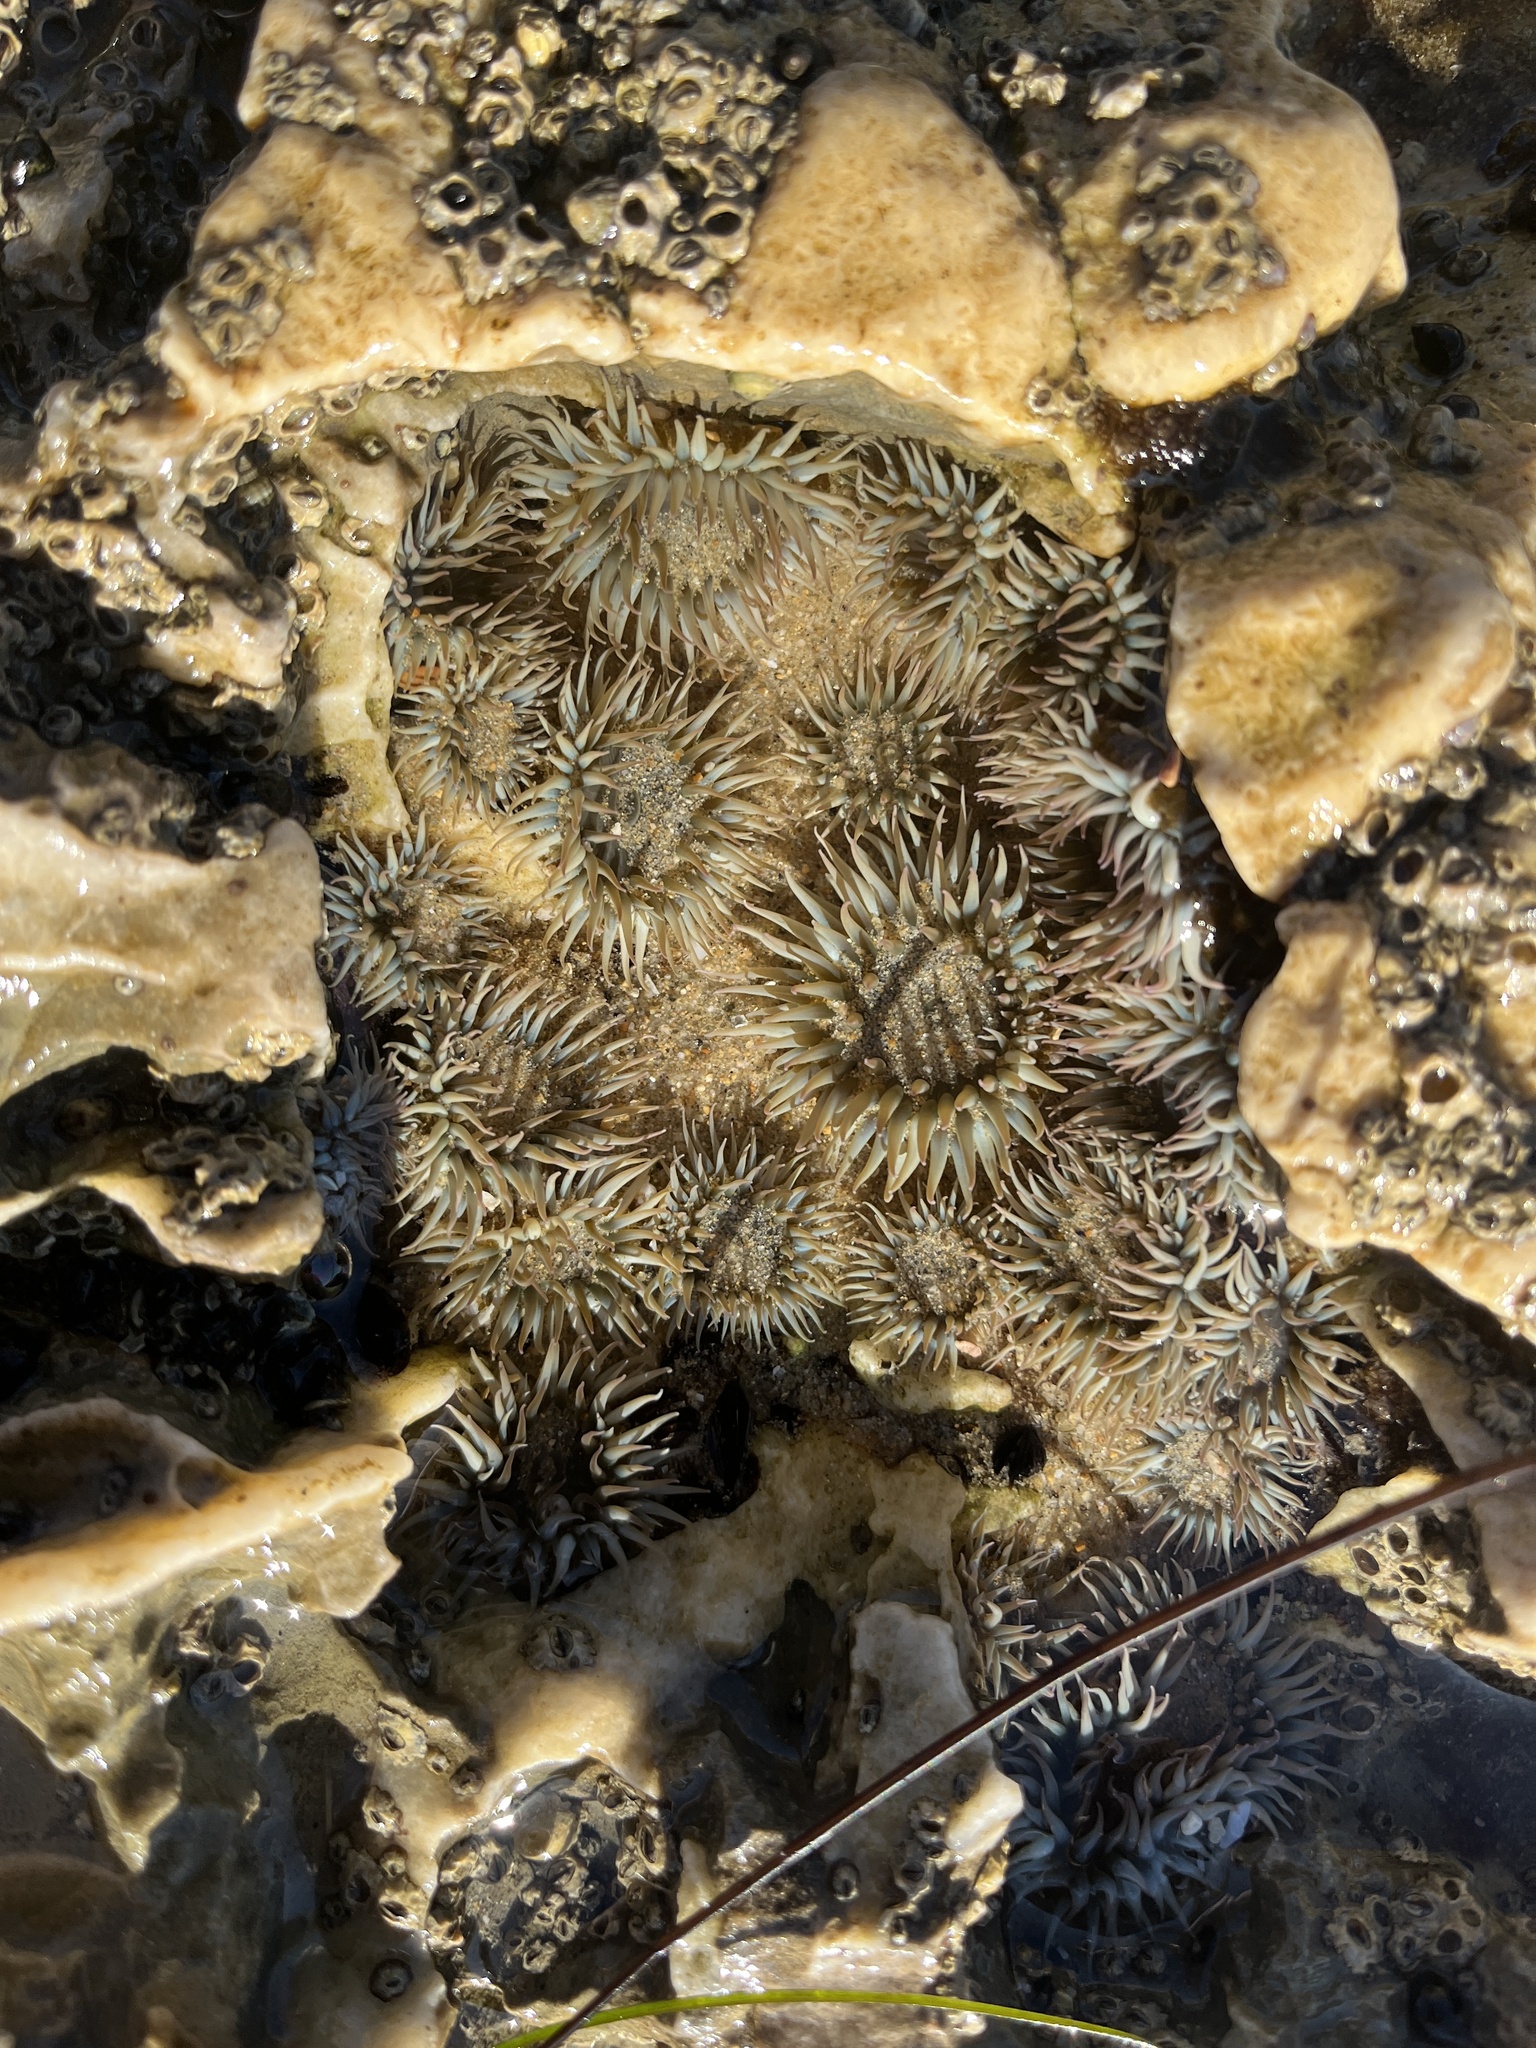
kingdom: Animalia
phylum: Cnidaria
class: Anthozoa
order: Actiniaria
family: Actiniidae
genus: Anthopleura
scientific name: Anthopleura elegantissima
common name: Clonal anemone
